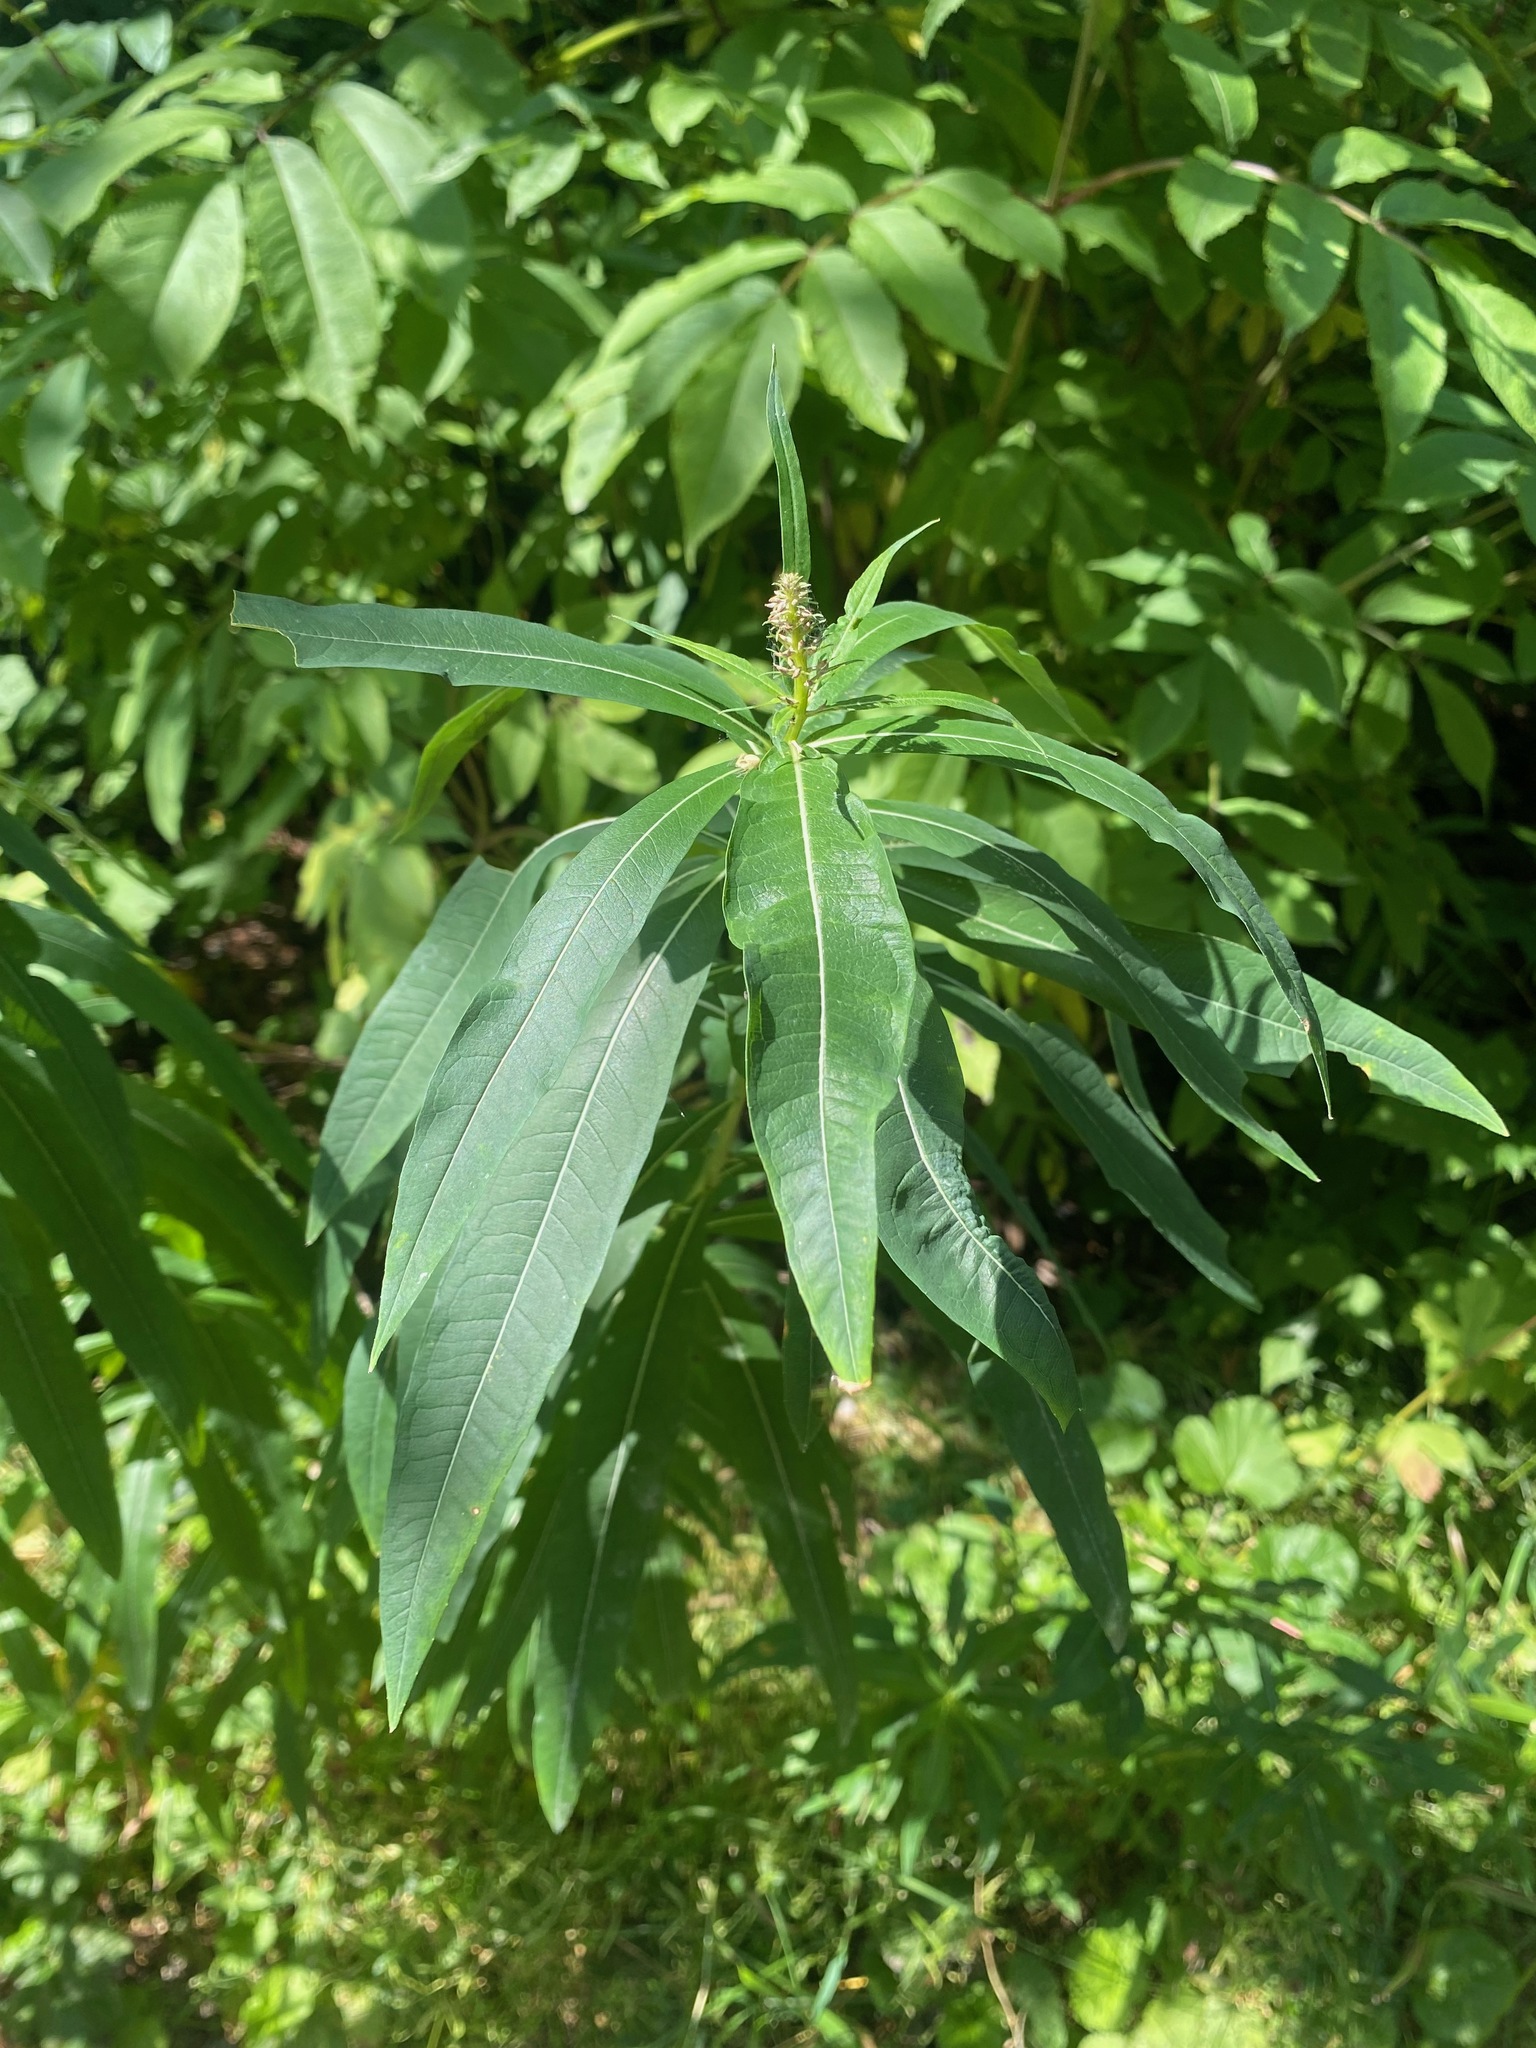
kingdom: Plantae
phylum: Tracheophyta
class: Magnoliopsida
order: Myrtales
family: Onagraceae
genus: Chamaenerion
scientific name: Chamaenerion angustifolium
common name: Fireweed
